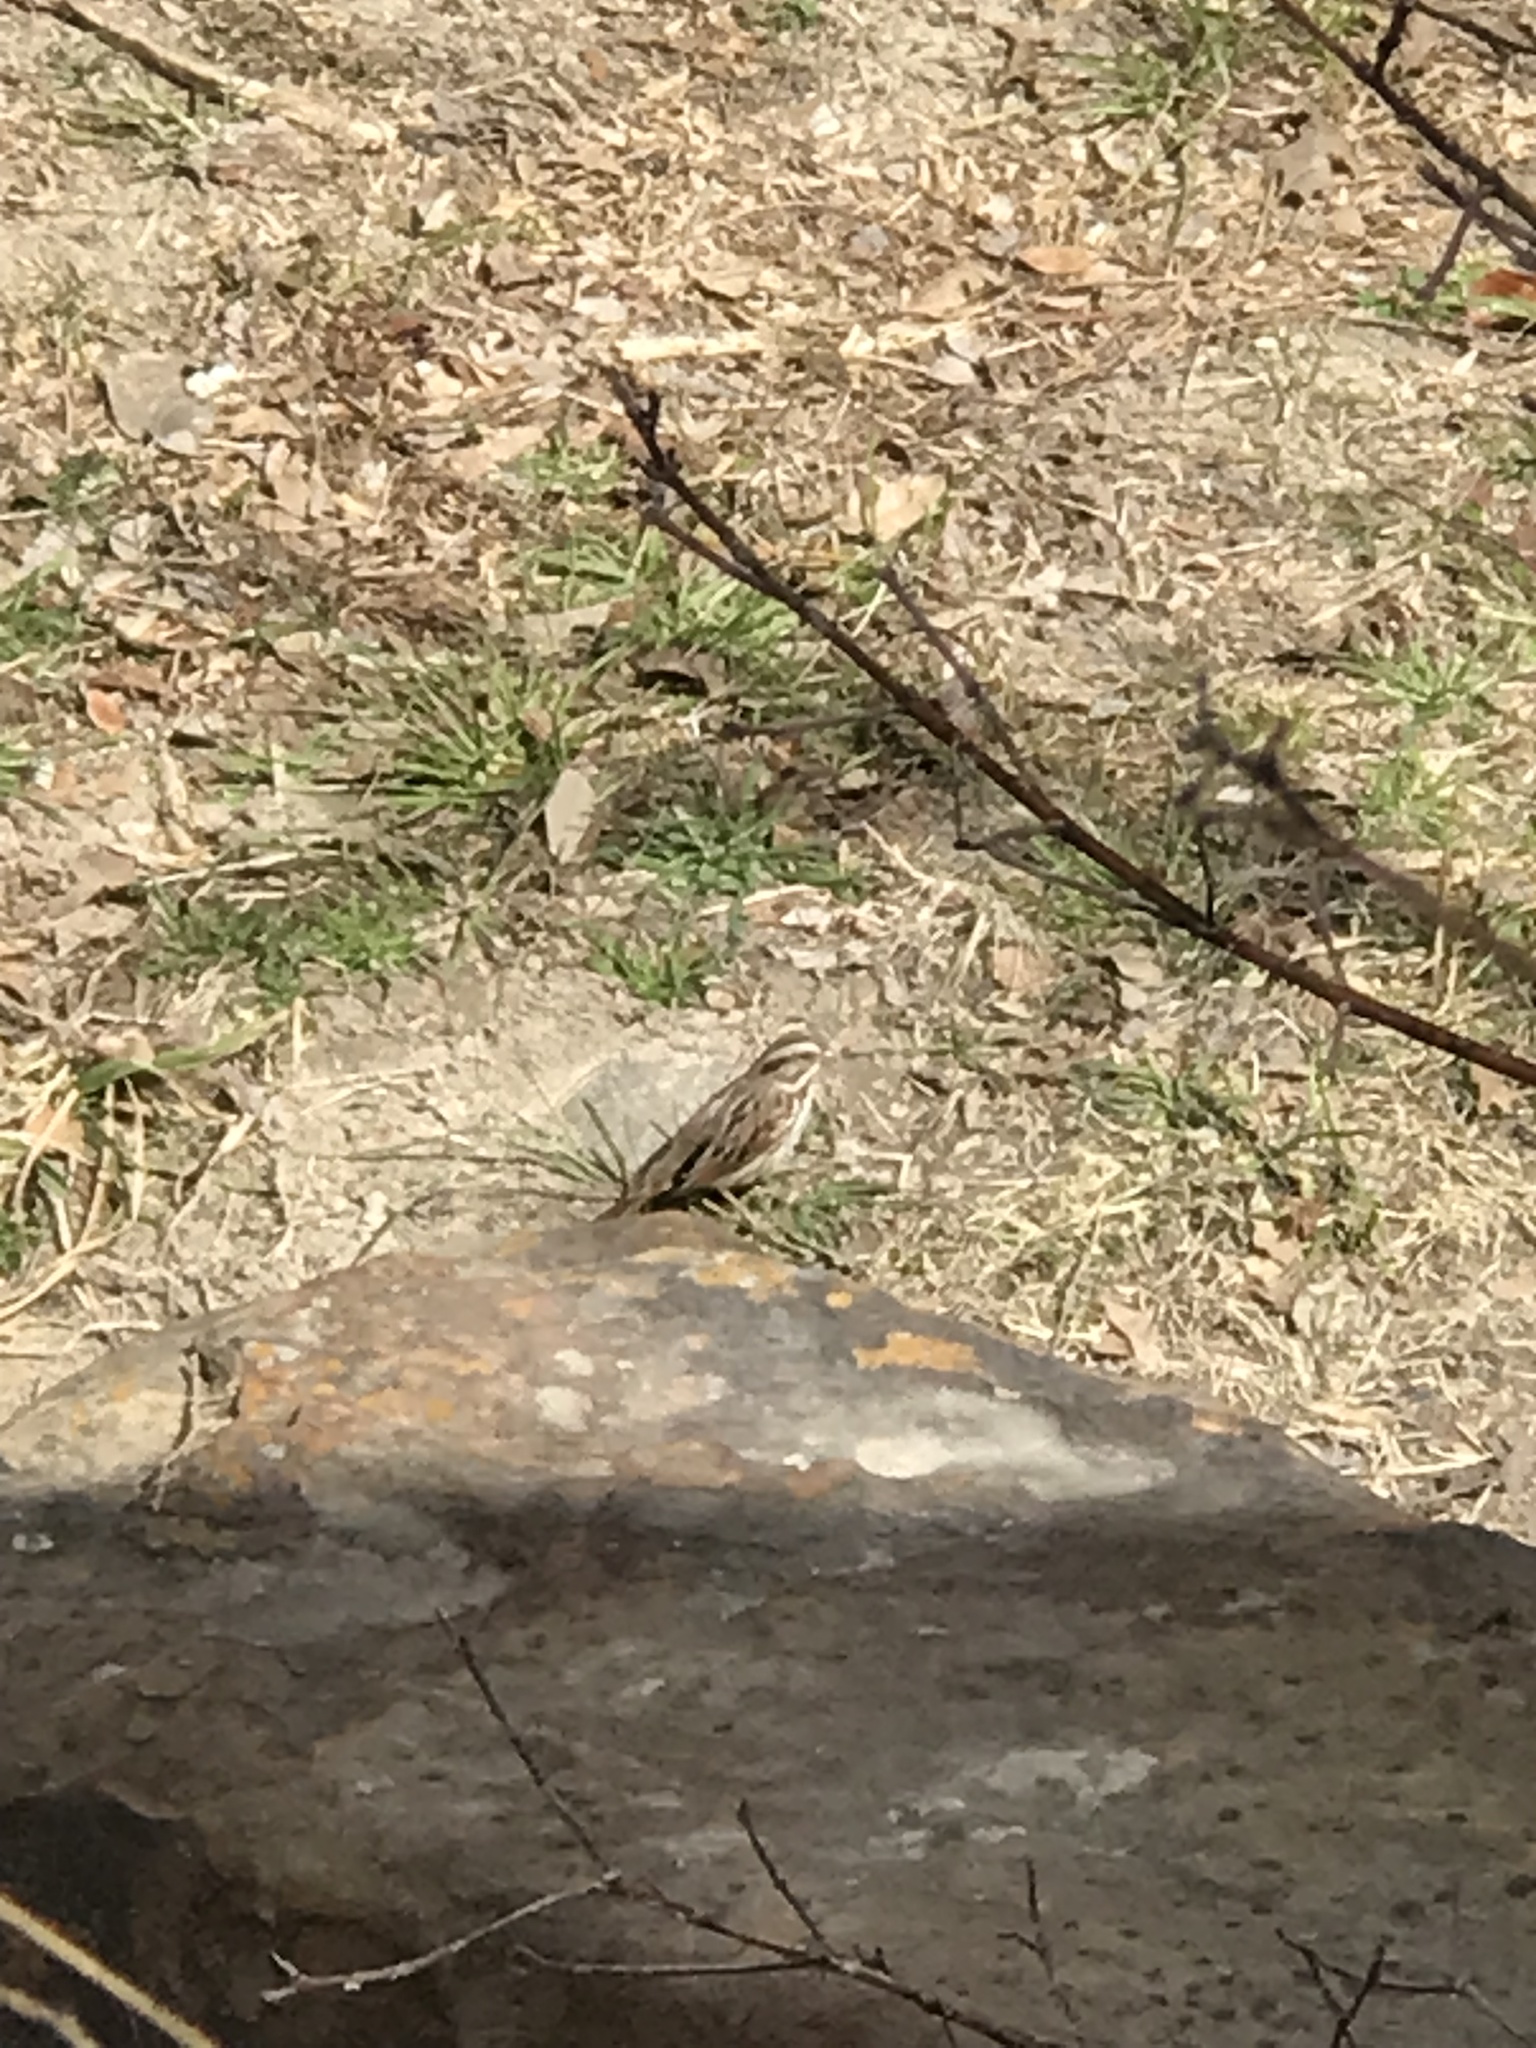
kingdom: Animalia
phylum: Chordata
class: Aves
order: Passeriformes
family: Passerellidae
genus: Passerculus
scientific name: Passerculus sandwichensis
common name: Savannah sparrow
